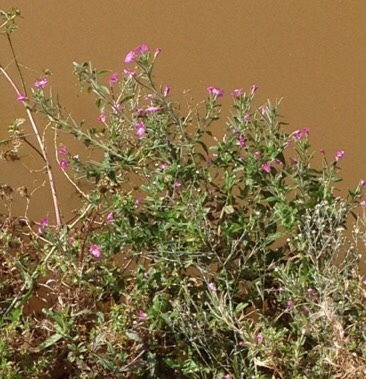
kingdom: Plantae
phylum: Tracheophyta
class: Magnoliopsida
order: Myrtales
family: Onagraceae
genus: Epilobium
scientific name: Epilobium hirsutum
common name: Great willowherb
